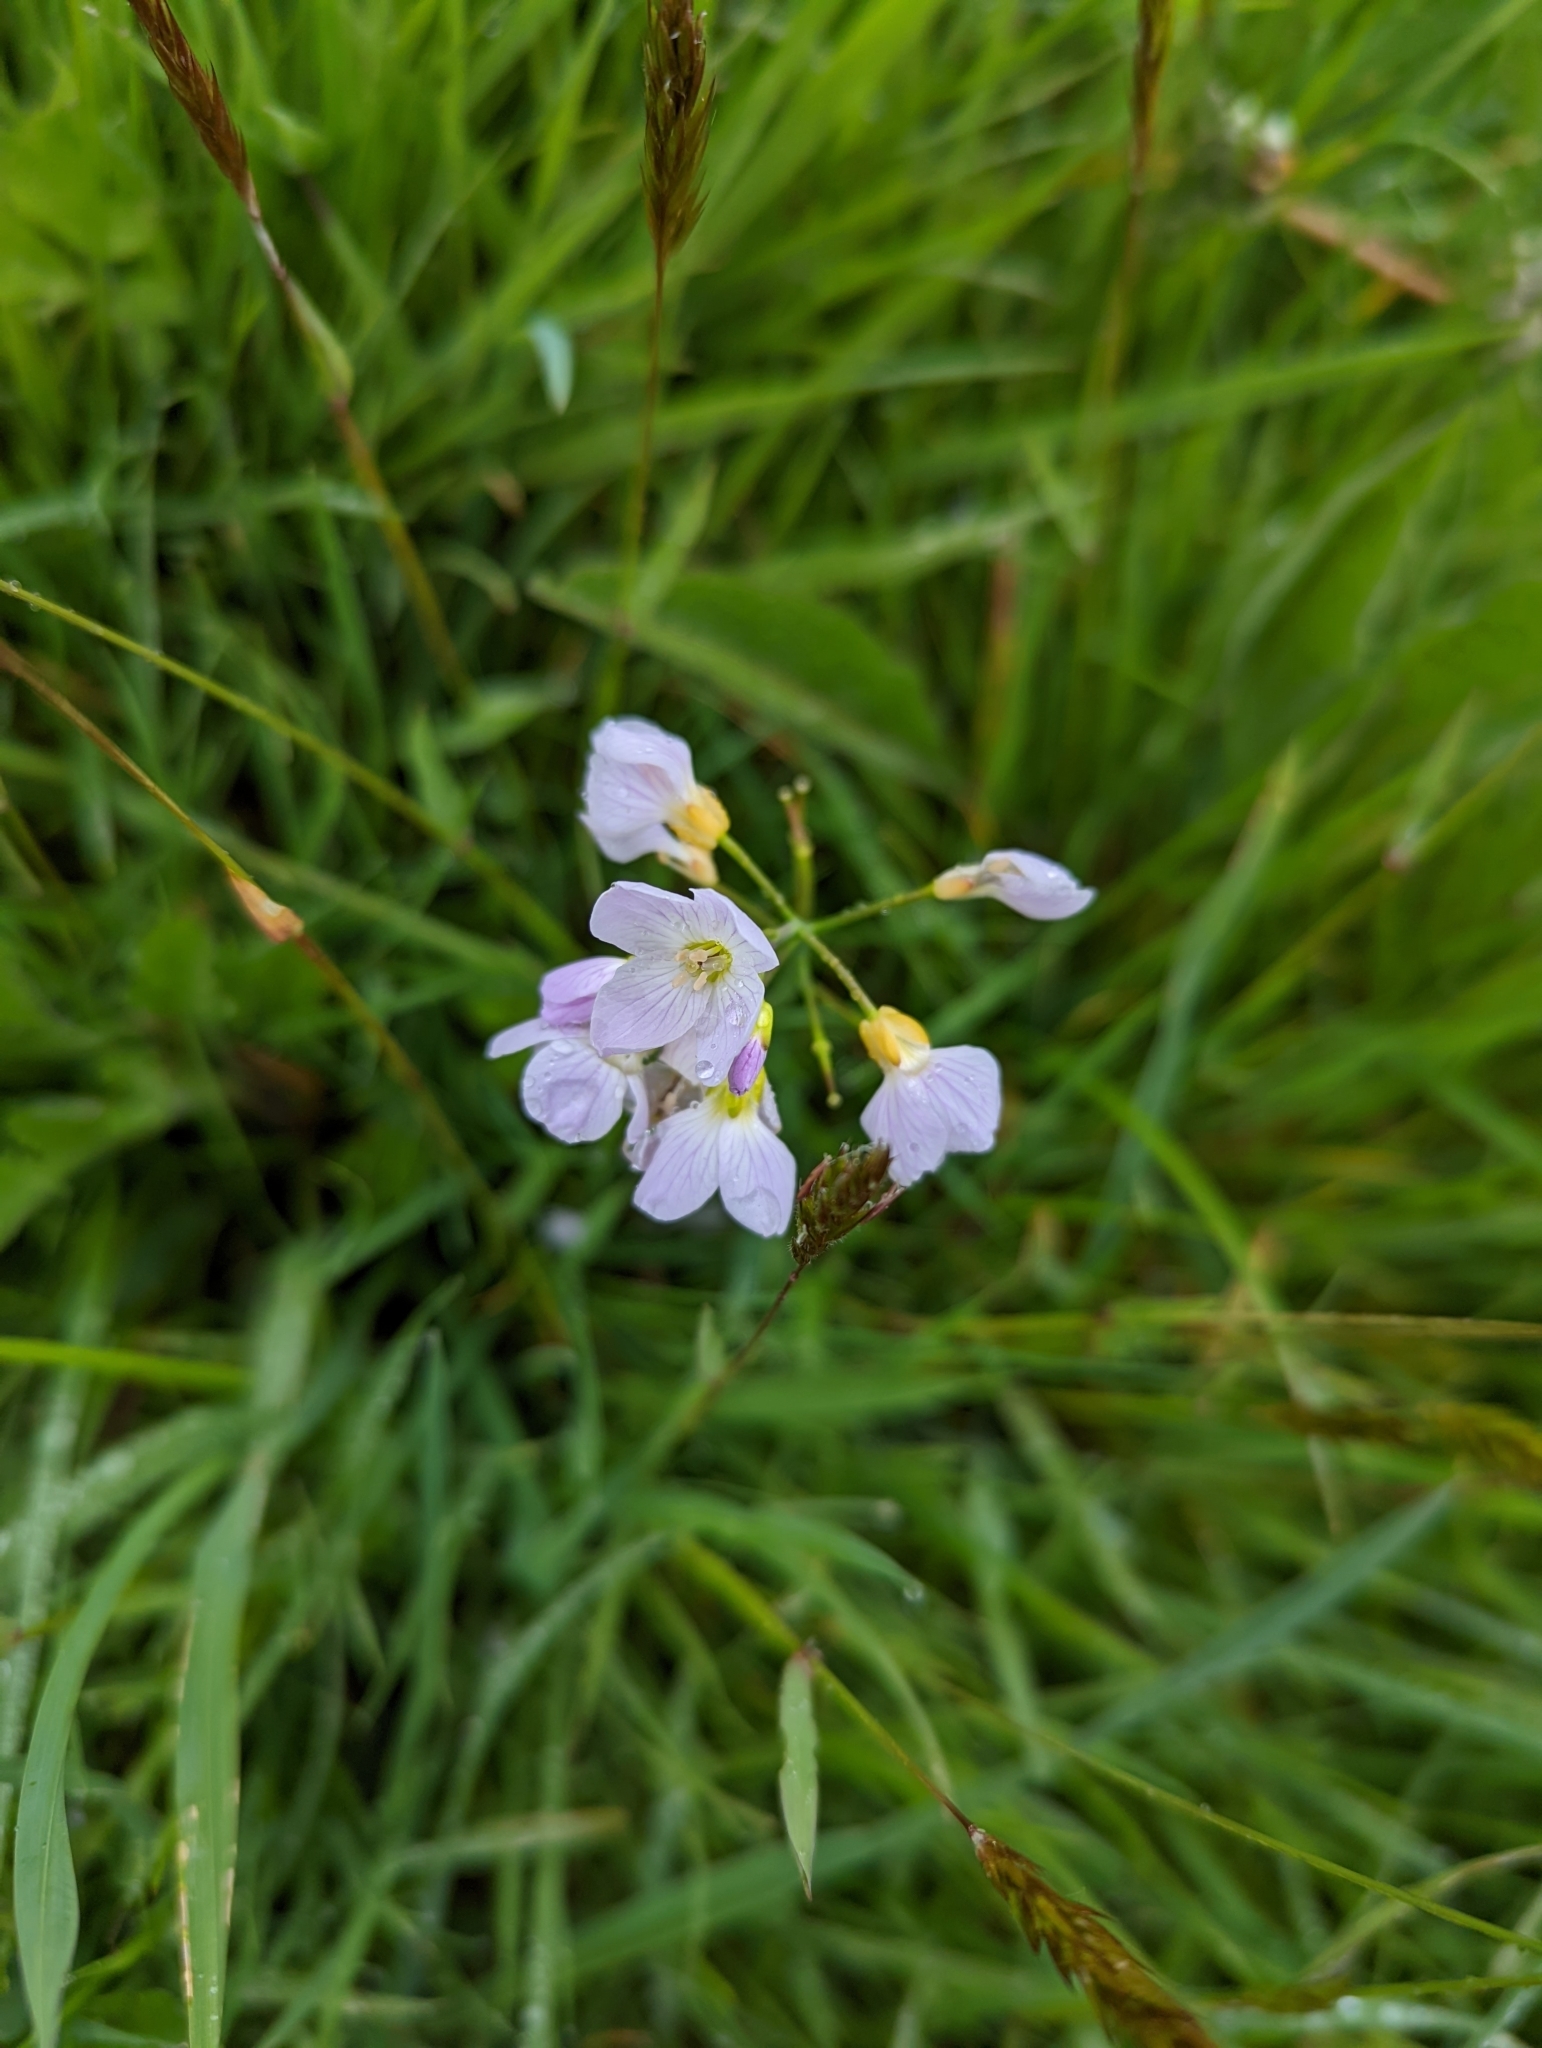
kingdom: Plantae
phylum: Tracheophyta
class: Magnoliopsida
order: Brassicales
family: Brassicaceae
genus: Cardamine
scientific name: Cardamine pratensis
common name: Cuckoo flower
